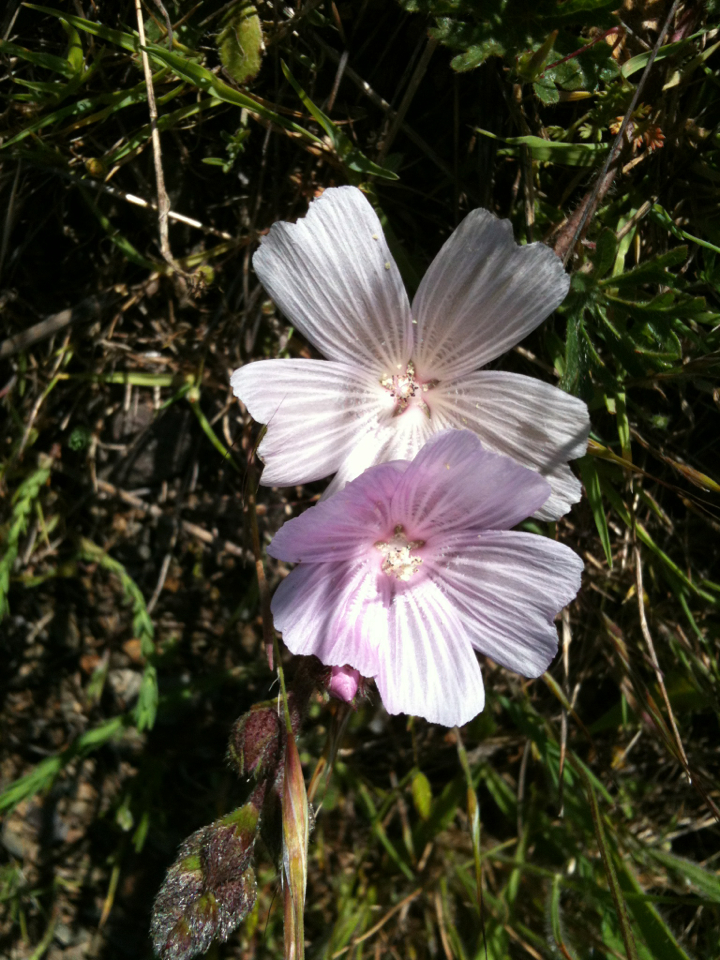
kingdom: Plantae
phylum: Tracheophyta
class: Magnoliopsida
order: Malvales
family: Malvaceae
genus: Sidalcea
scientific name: Sidalcea malviflora
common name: Greek mallow
